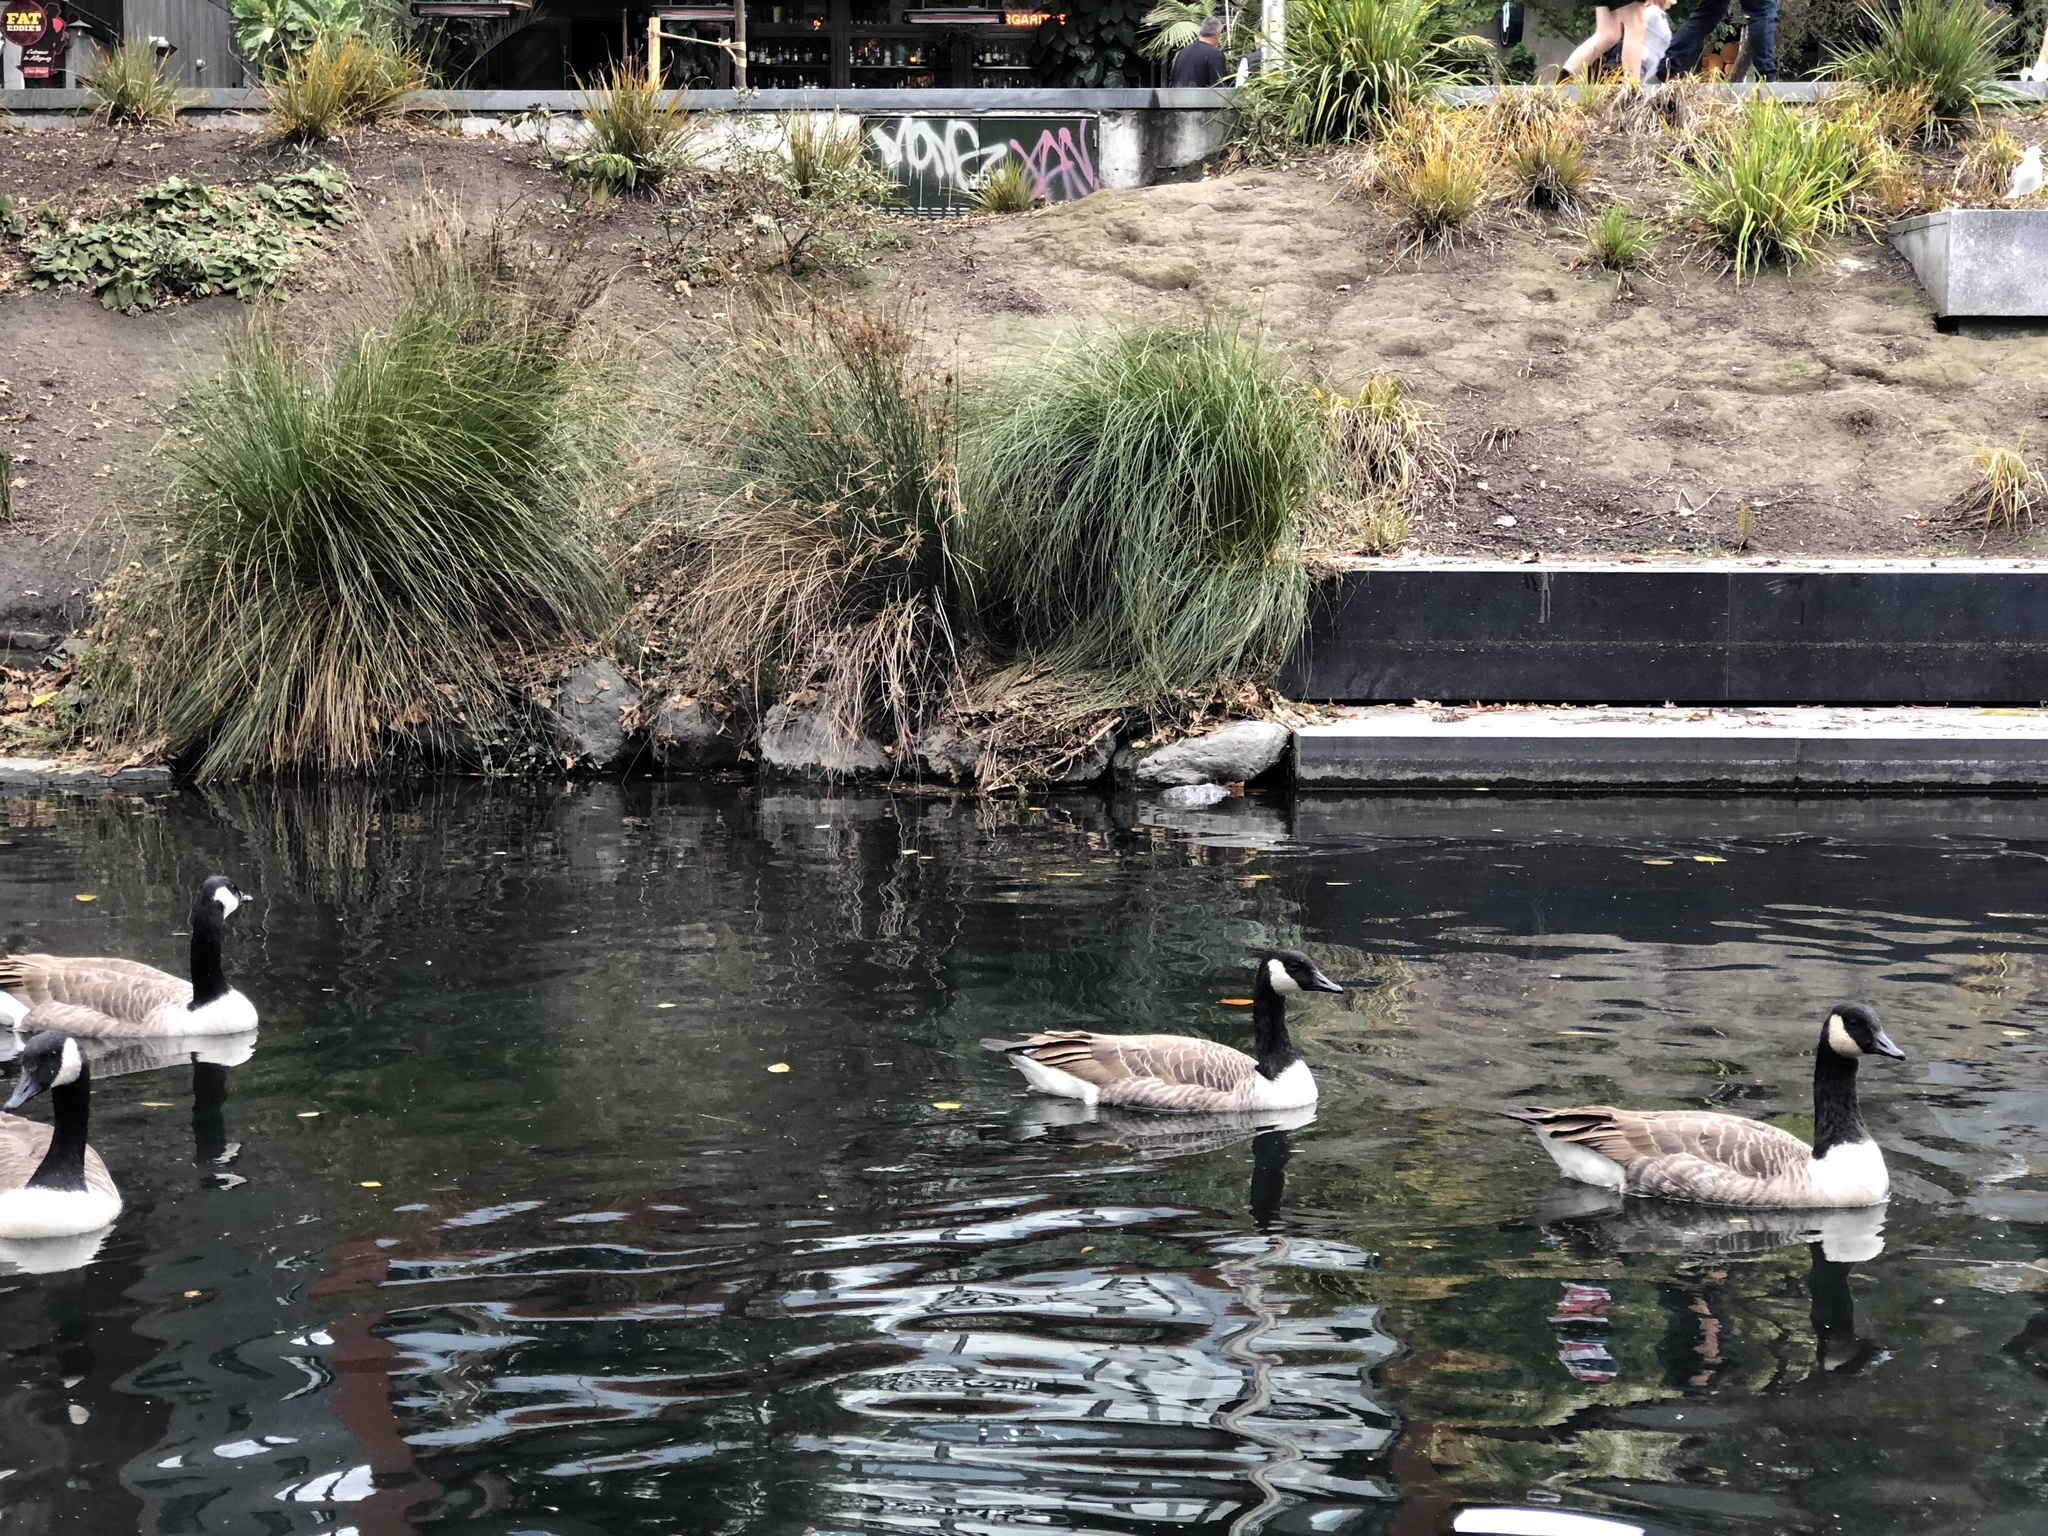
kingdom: Animalia
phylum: Chordata
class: Aves
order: Anseriformes
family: Anatidae
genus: Branta
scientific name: Branta canadensis
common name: Canada goose
